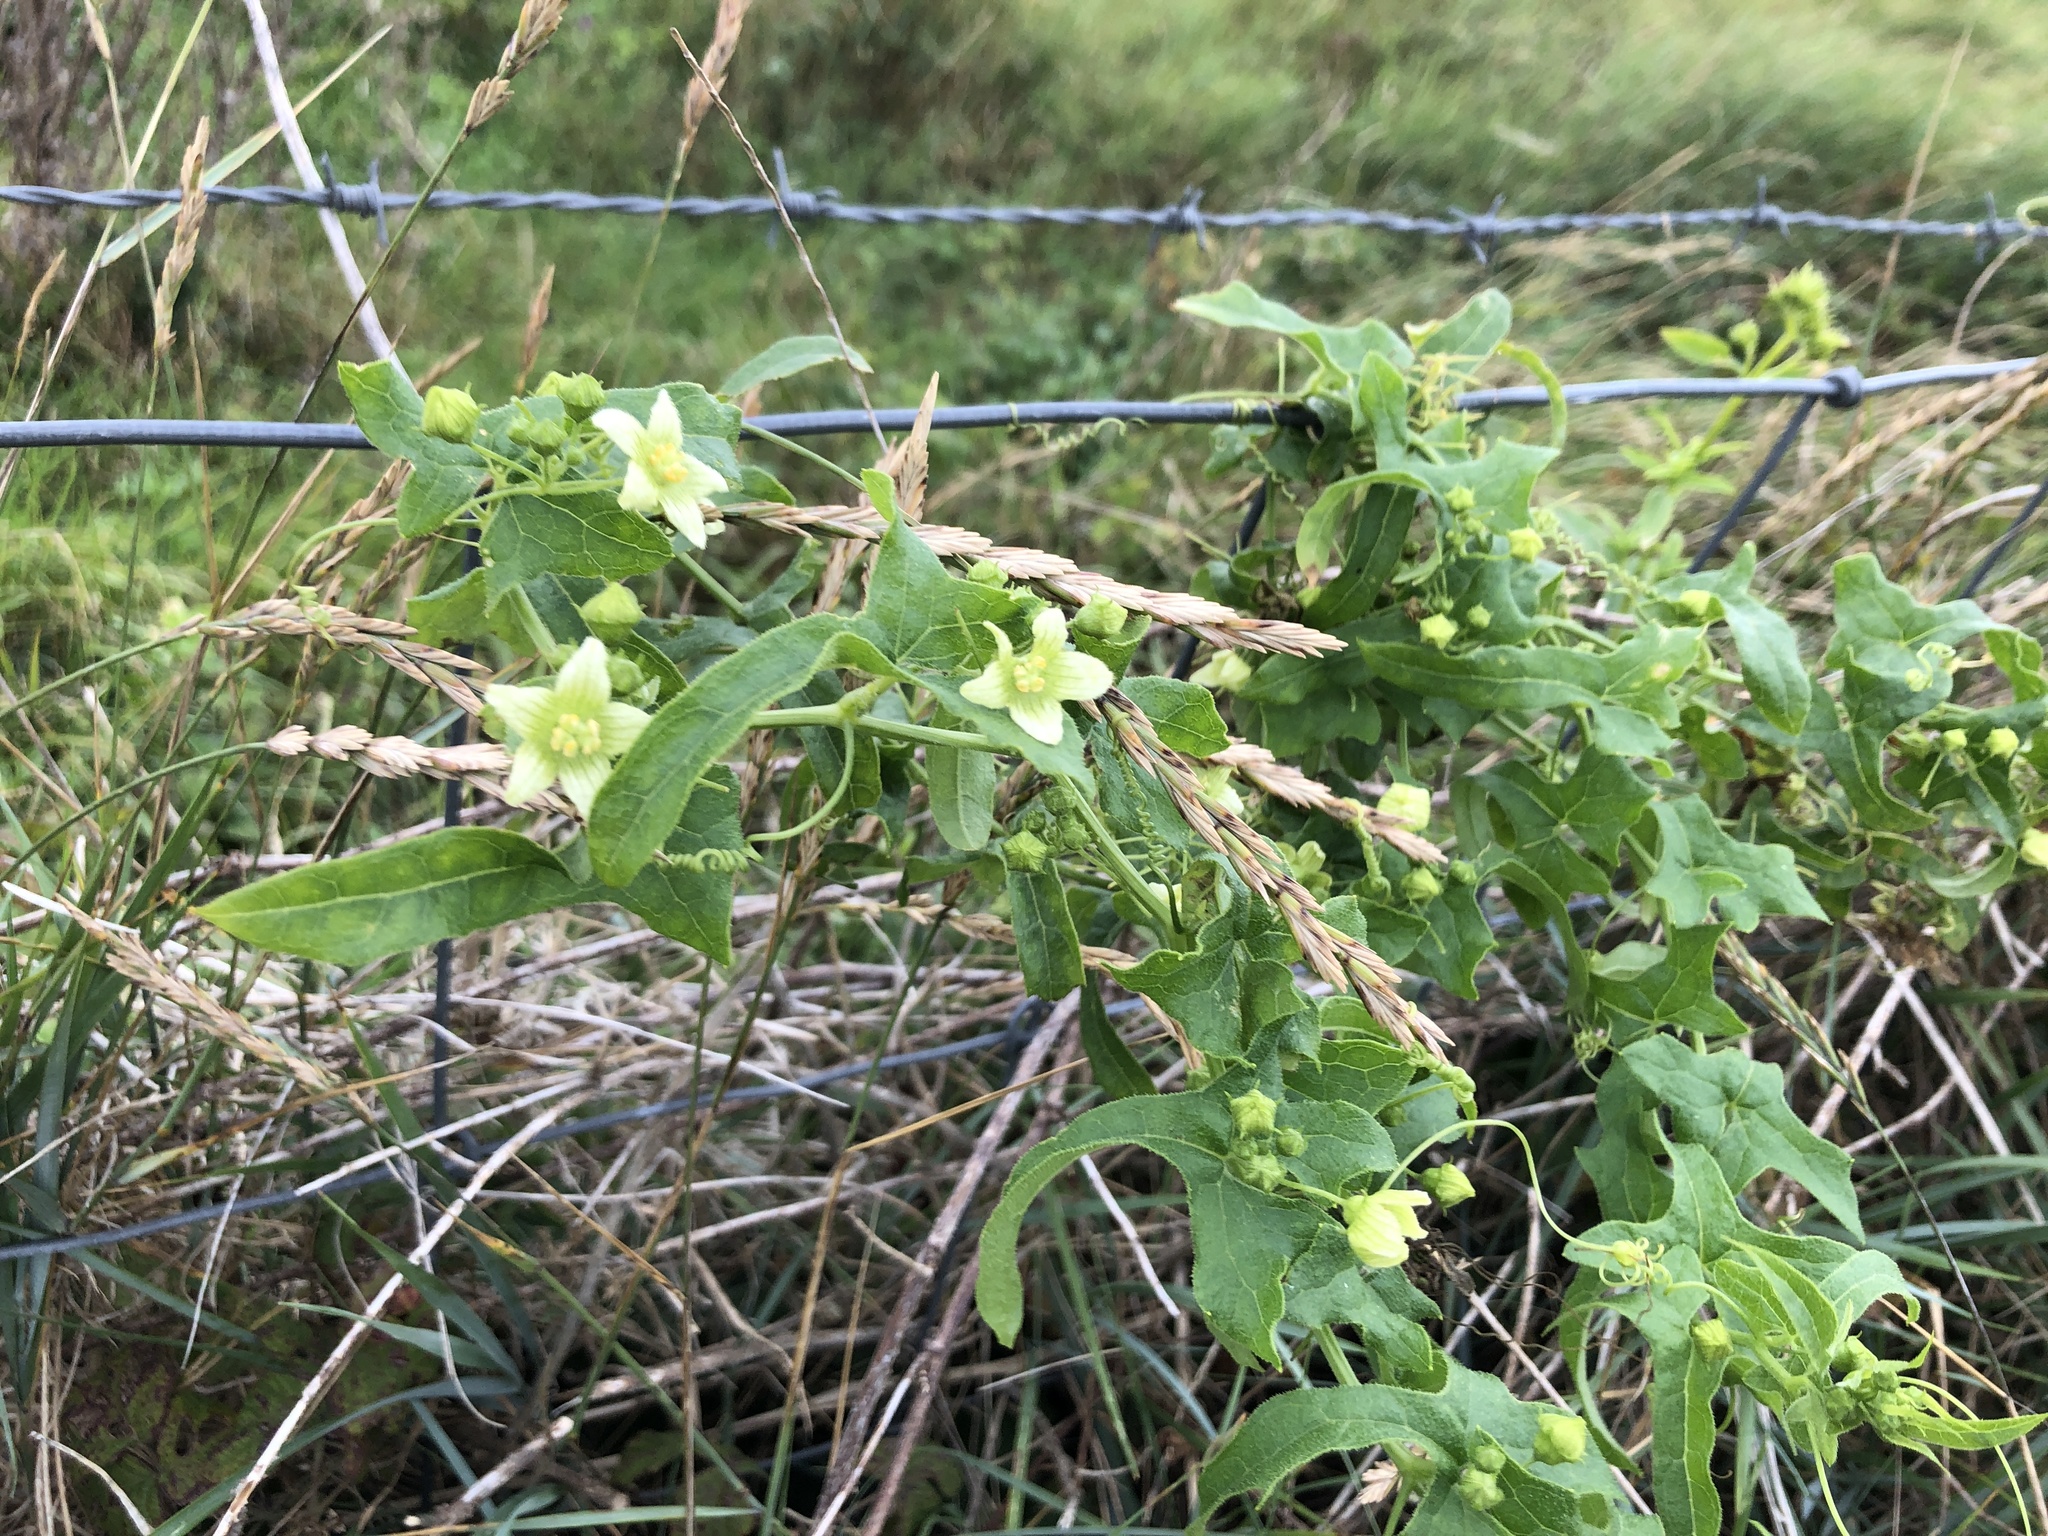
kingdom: Plantae
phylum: Tracheophyta
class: Magnoliopsida
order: Cucurbitales
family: Cucurbitaceae
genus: Bryonia
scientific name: Bryonia cretica
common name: Cretan bryony
